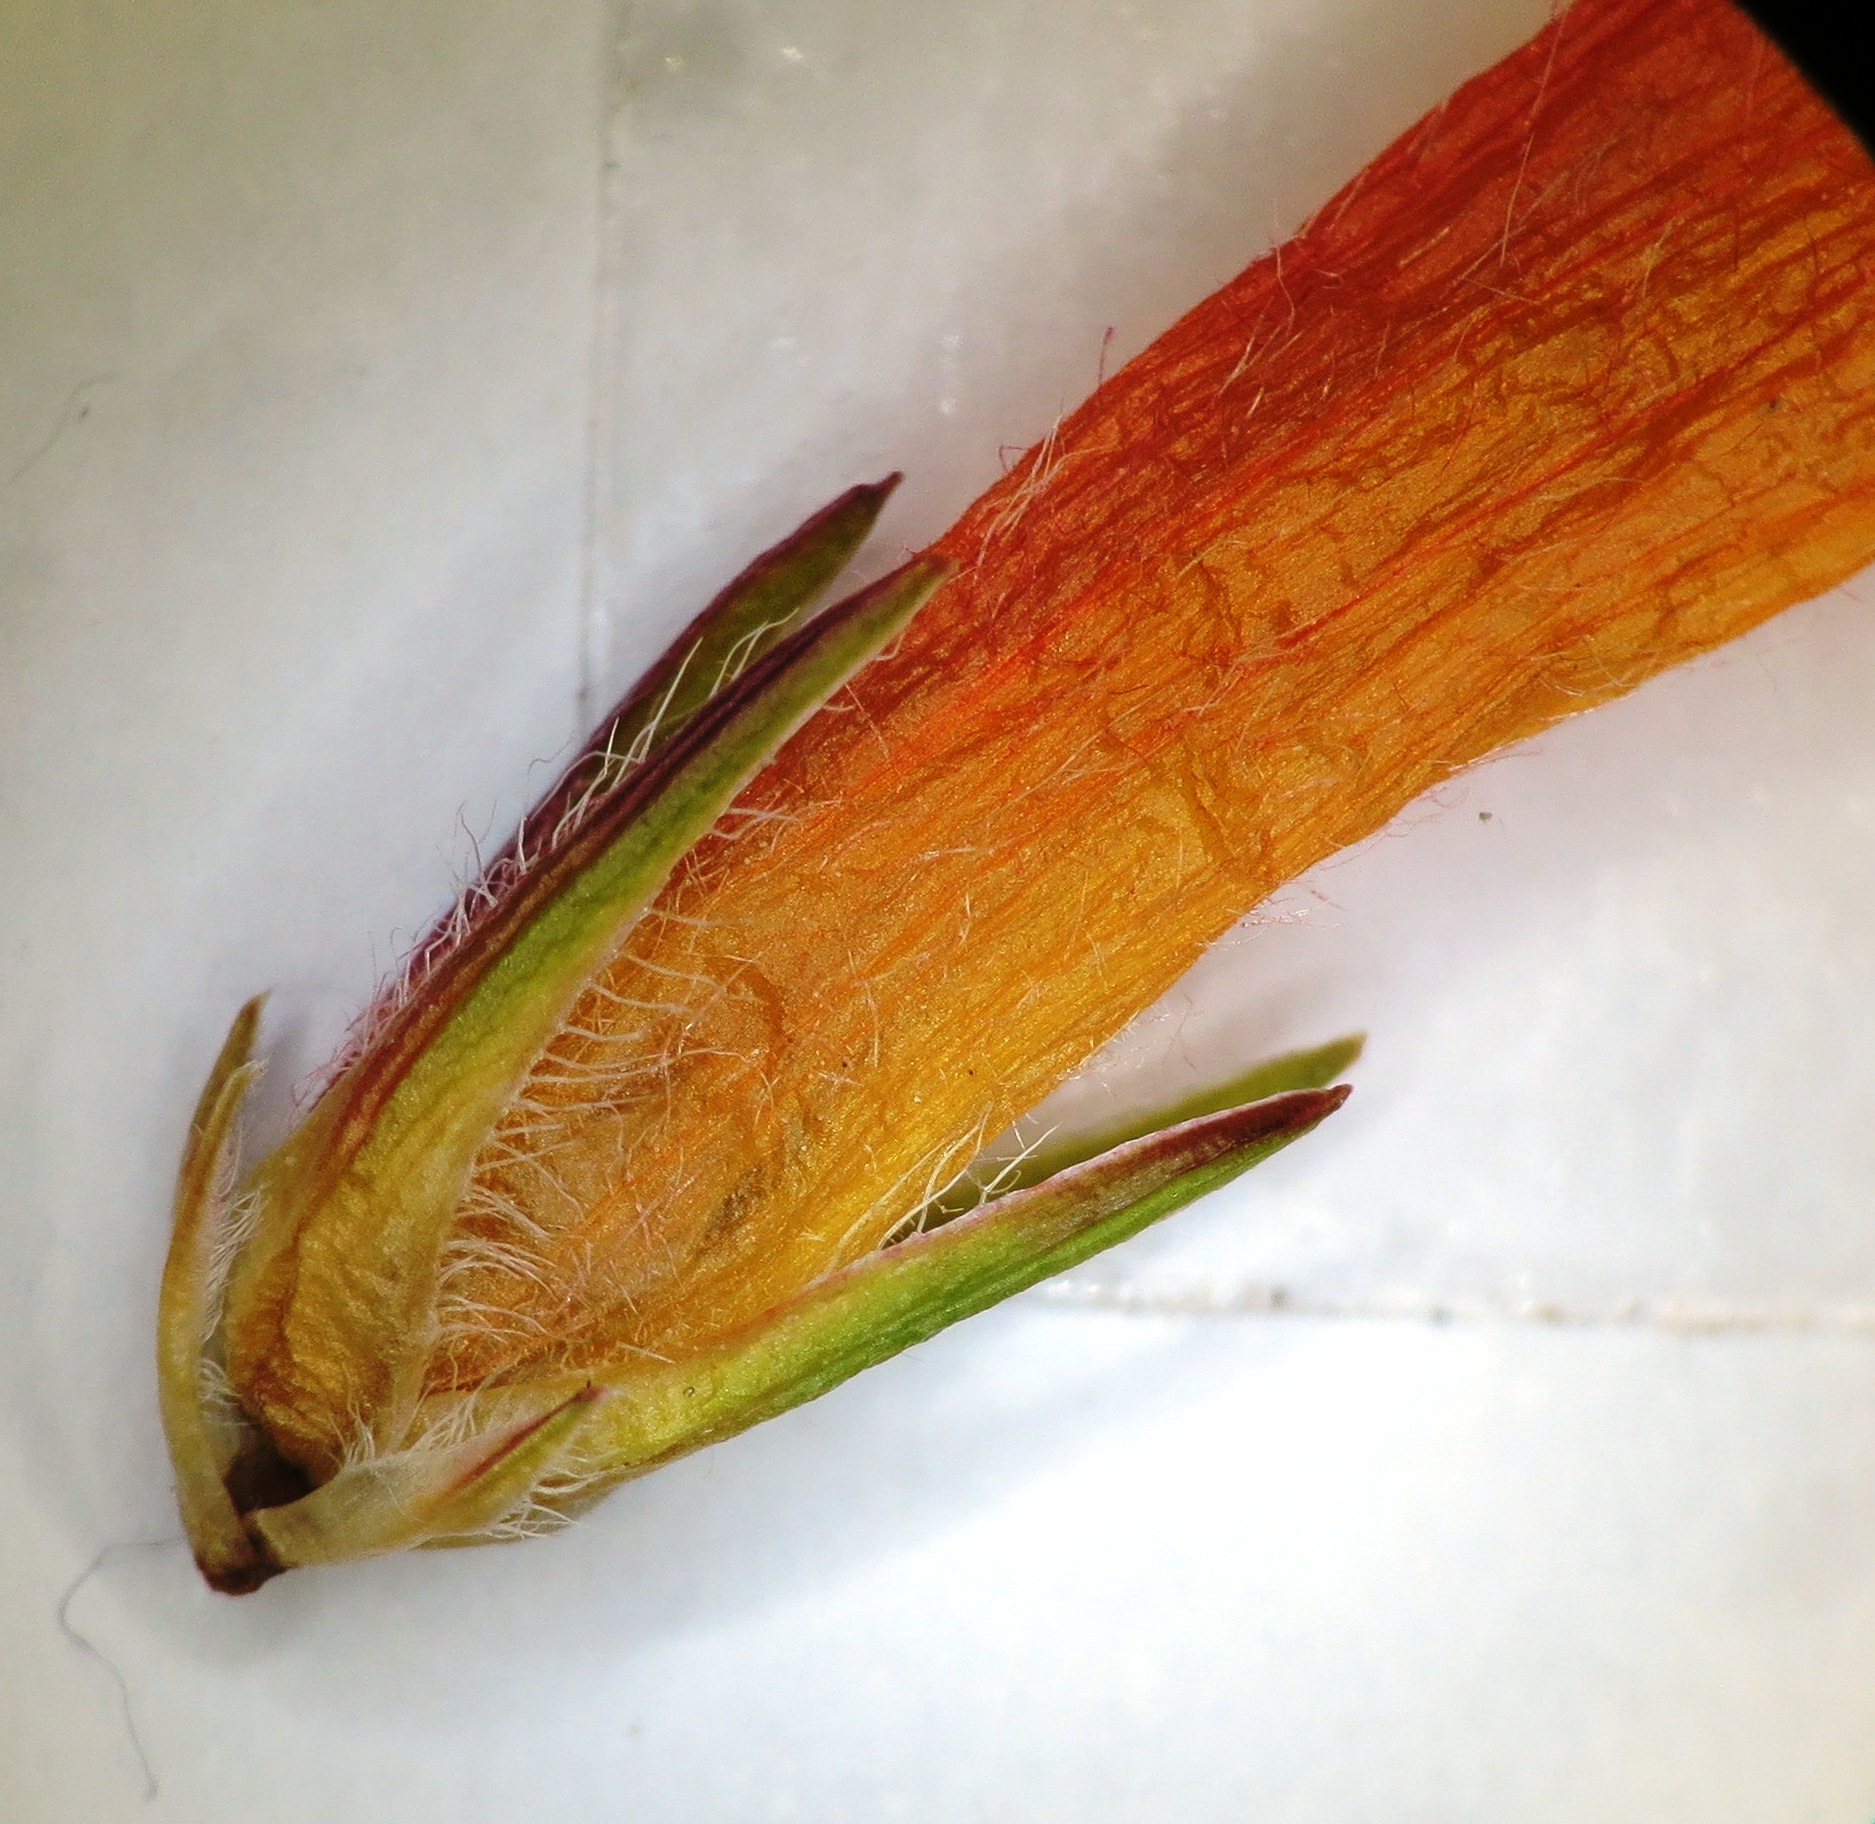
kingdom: Plantae
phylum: Tracheophyta
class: Magnoliopsida
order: Ericales
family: Ericaceae
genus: Erica
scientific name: Erica curviflora
